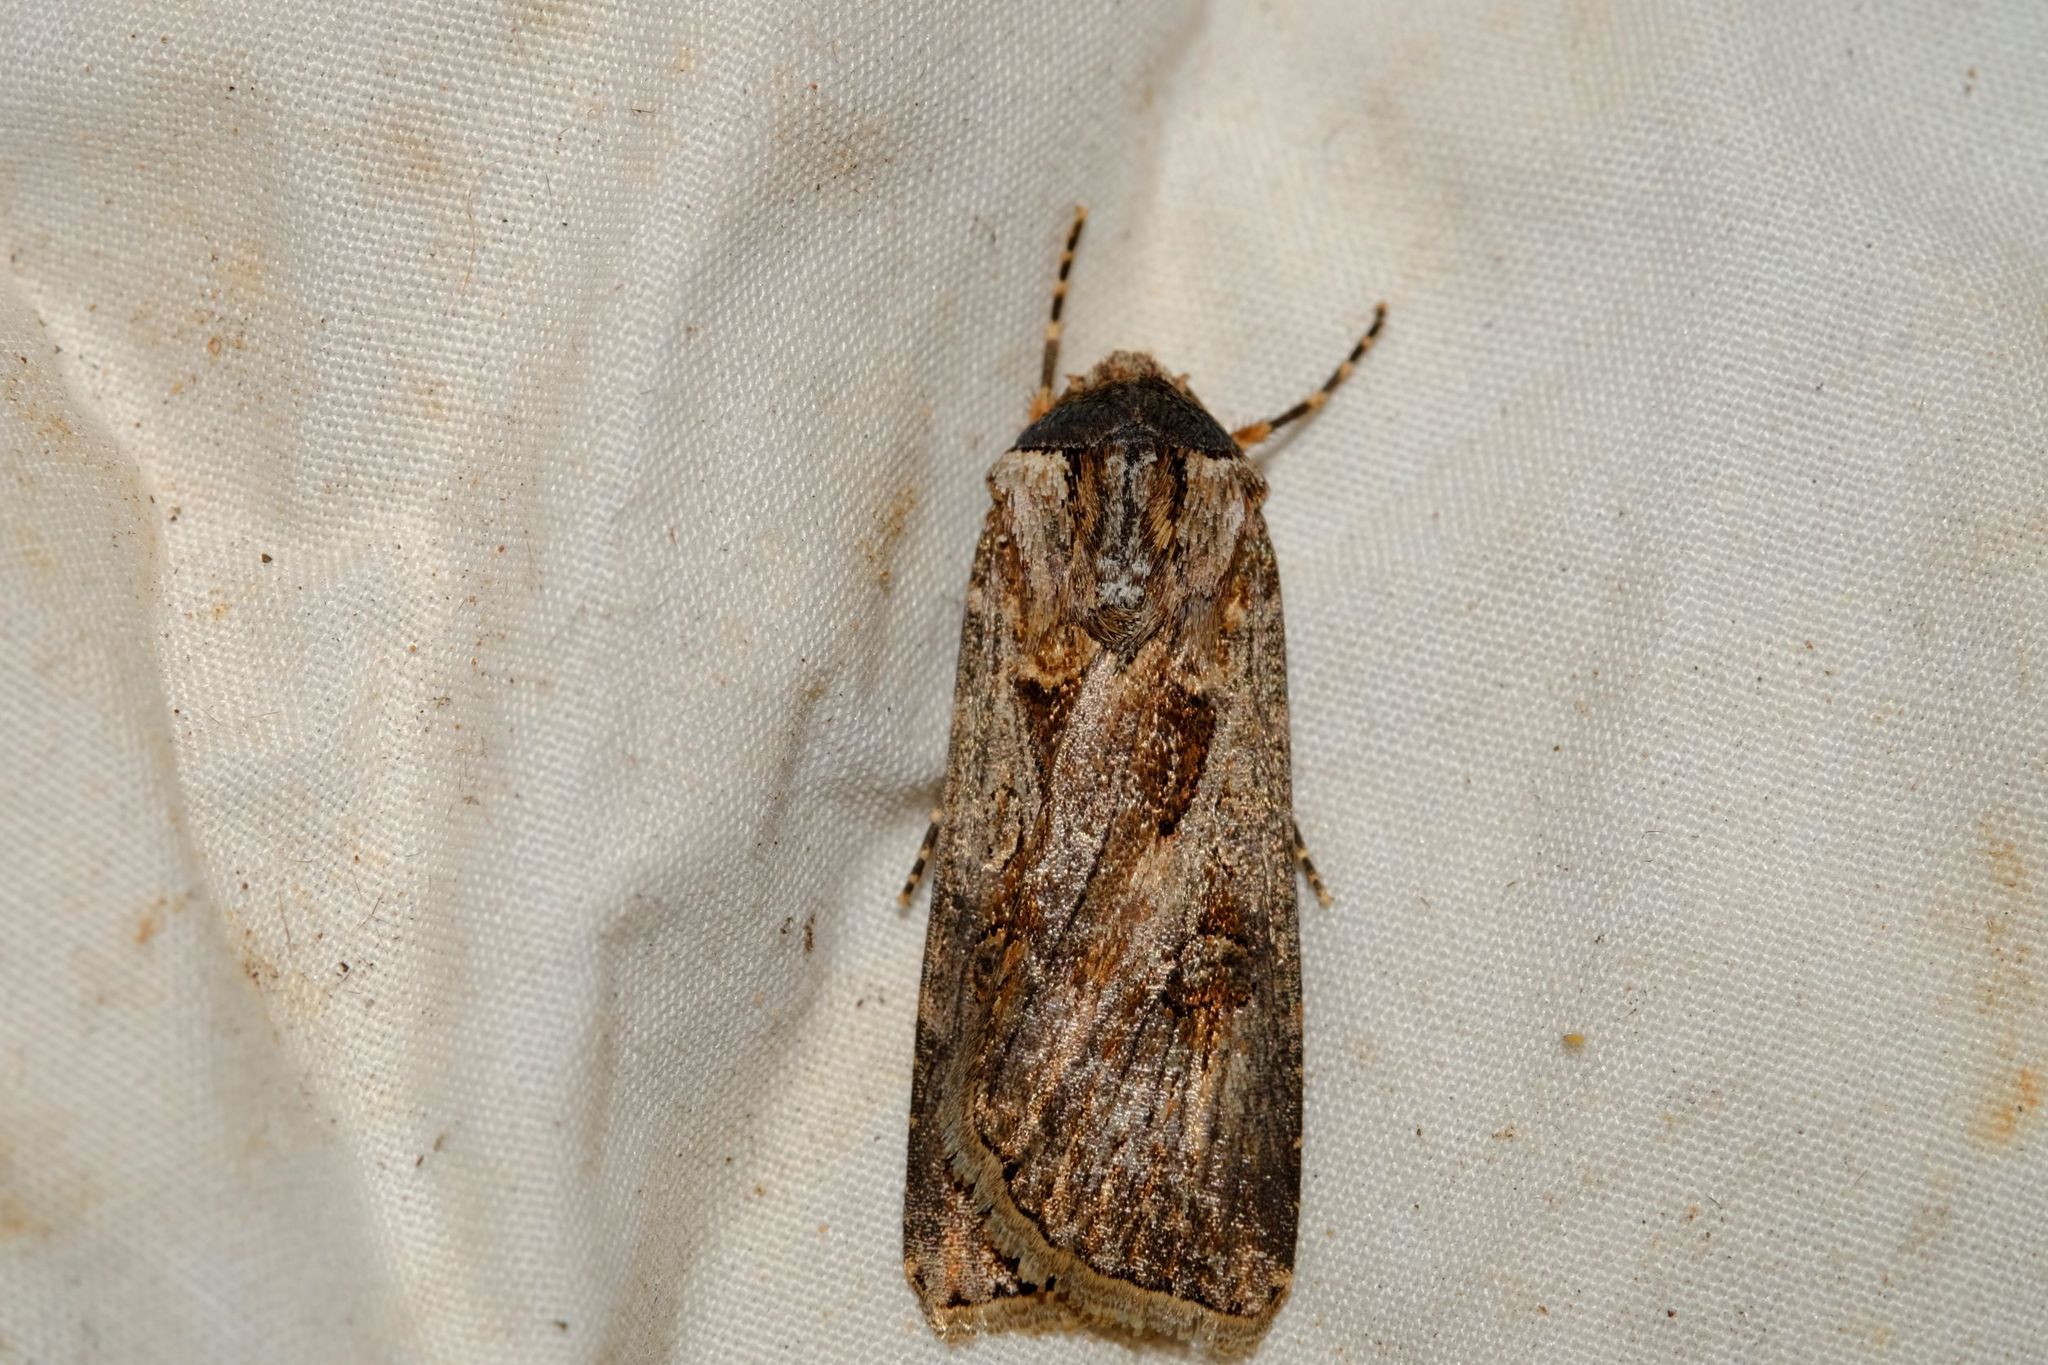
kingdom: Animalia
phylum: Arthropoda
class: Insecta
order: Lepidoptera
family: Noctuidae
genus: Agrotis
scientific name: Agrotis munda
